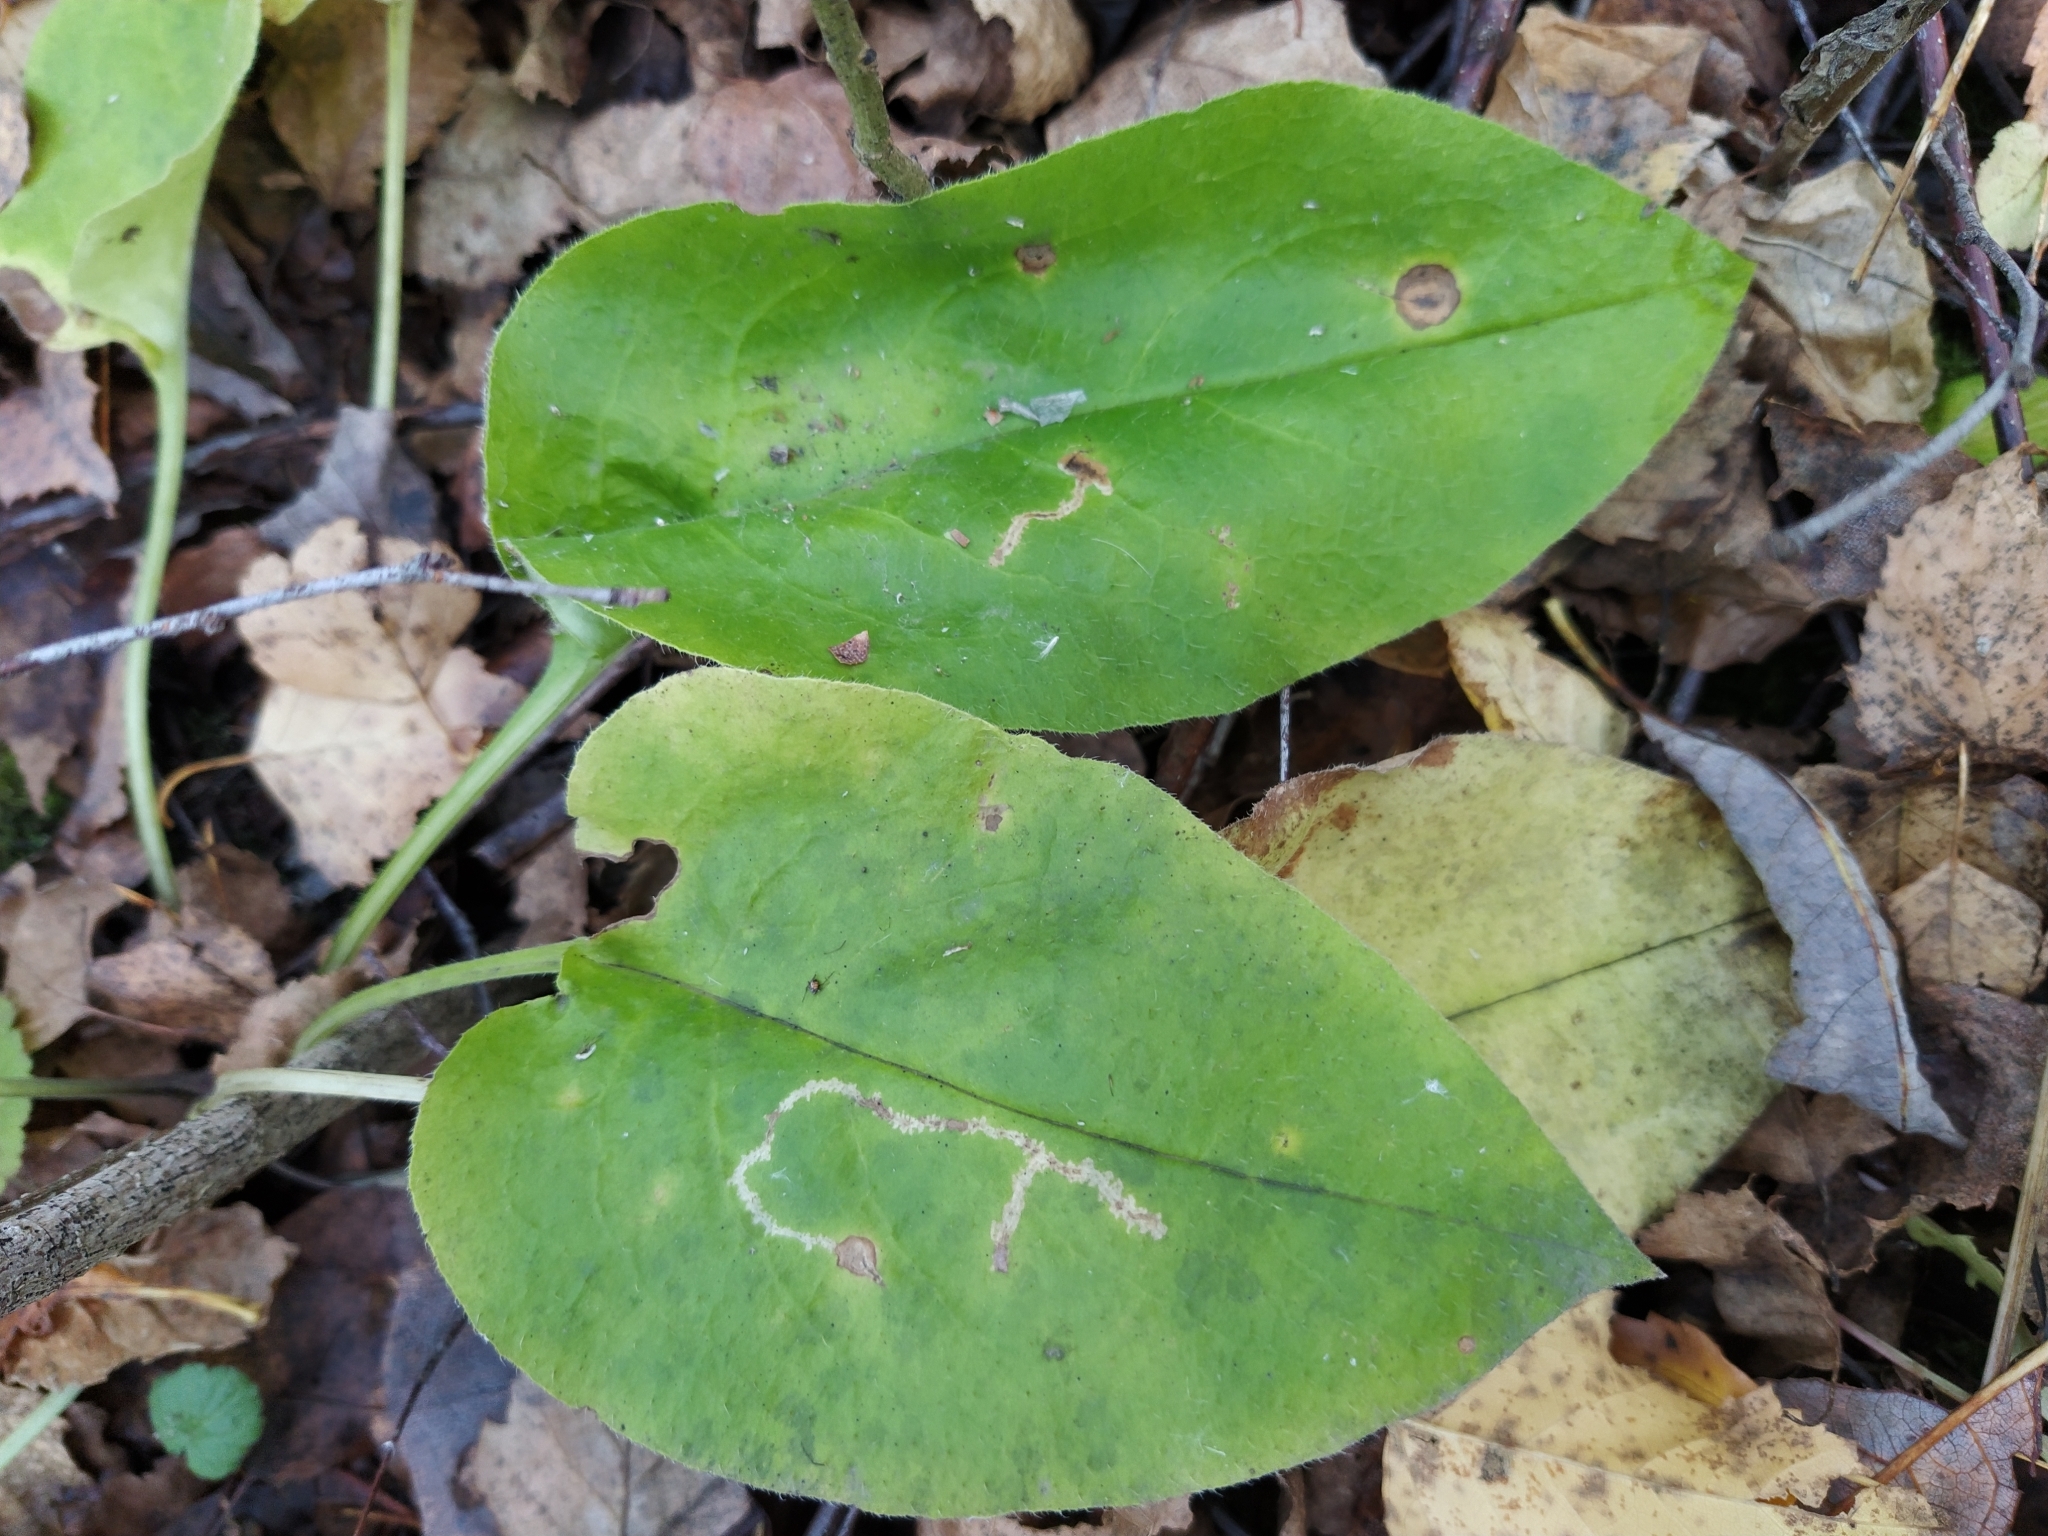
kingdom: Plantae
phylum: Tracheophyta
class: Magnoliopsida
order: Boraginales
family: Boraginaceae
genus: Pulmonaria
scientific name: Pulmonaria obscura
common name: Suffolk lungwort
